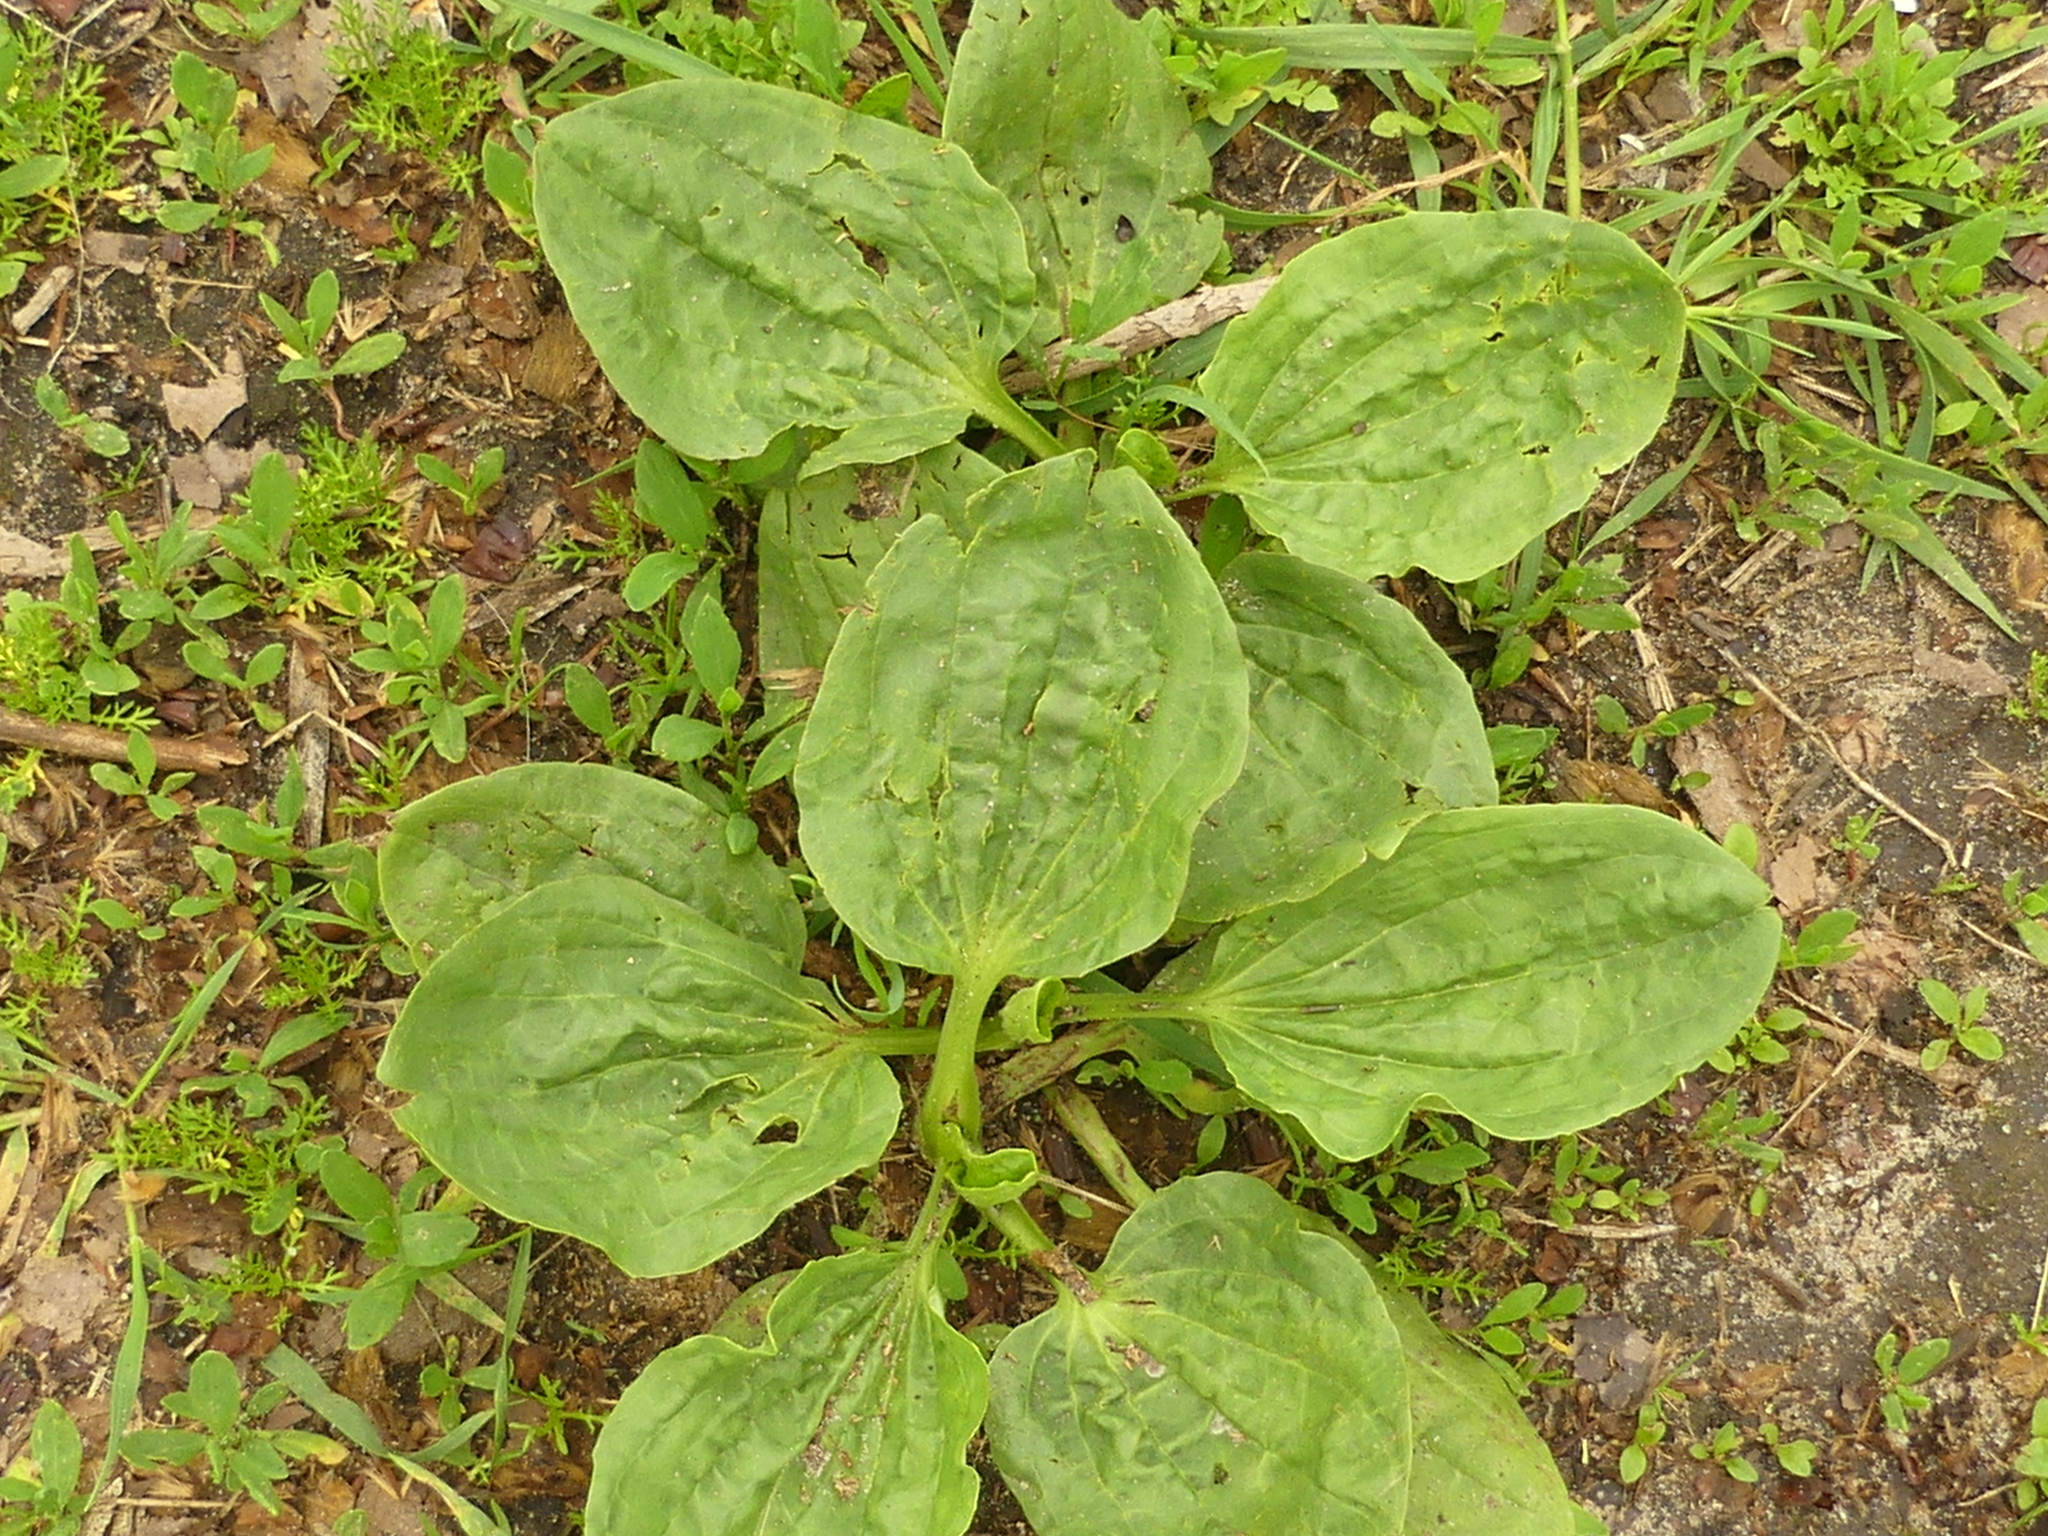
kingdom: Plantae
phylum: Tracheophyta
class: Magnoliopsida
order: Lamiales
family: Plantaginaceae
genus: Plantago
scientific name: Plantago major
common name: Common plantain
